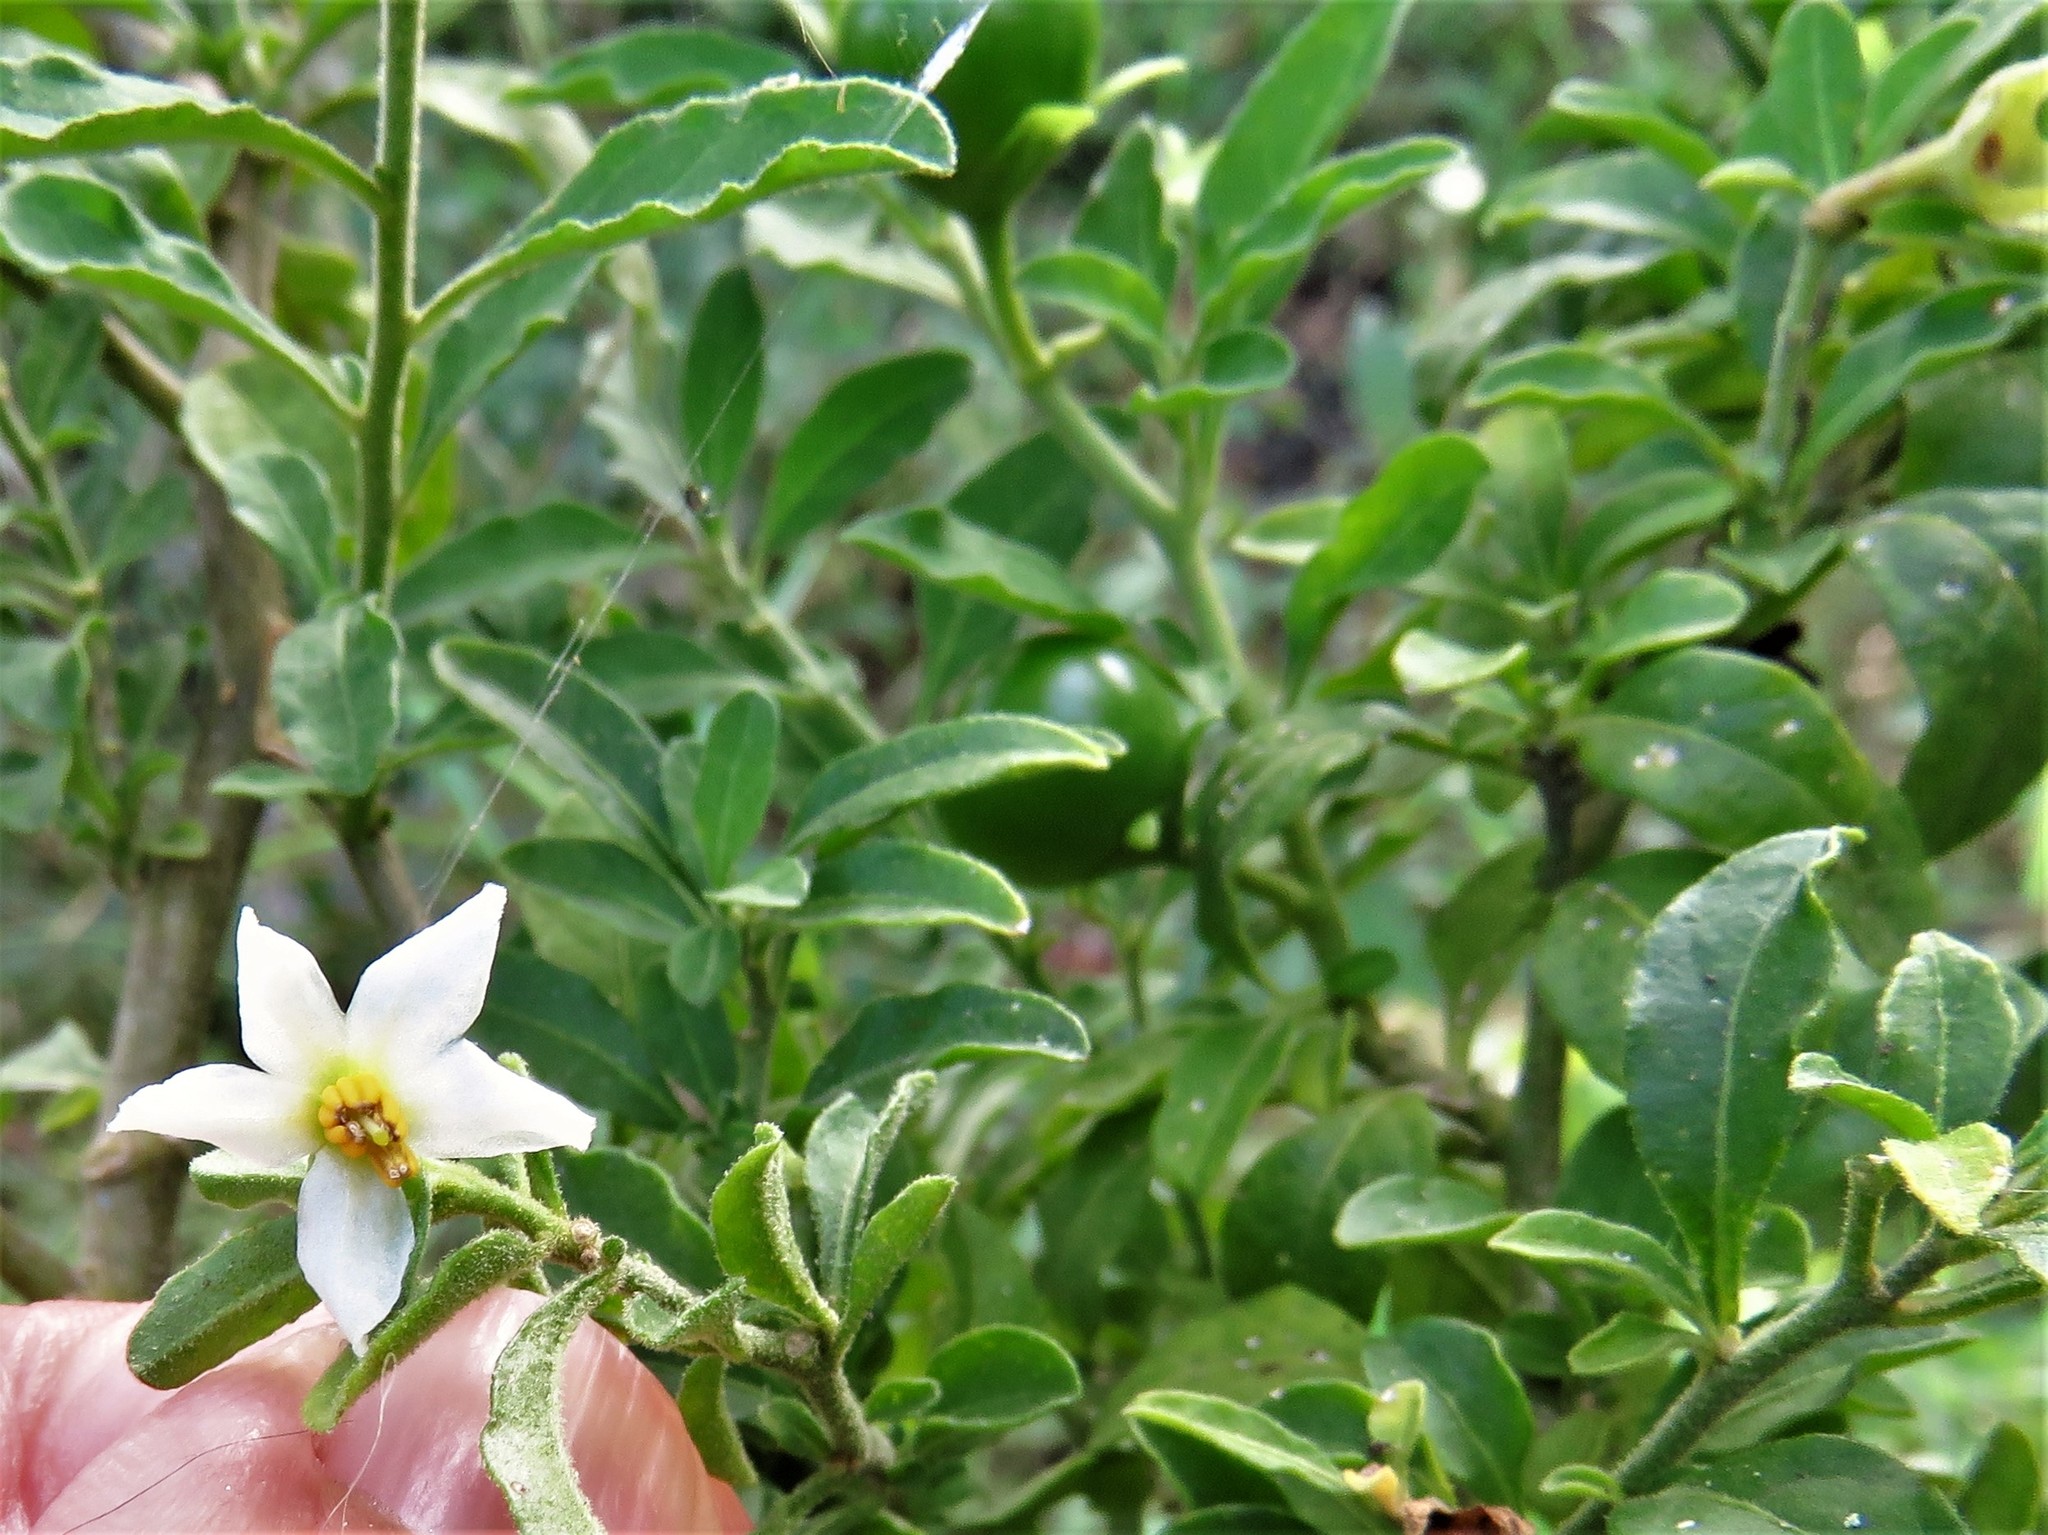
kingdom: Plantae
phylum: Tracheophyta
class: Magnoliopsida
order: Solanales
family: Solanaceae
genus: Solanum
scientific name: Solanum pseudocapsicum
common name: Jerusalem cherry
